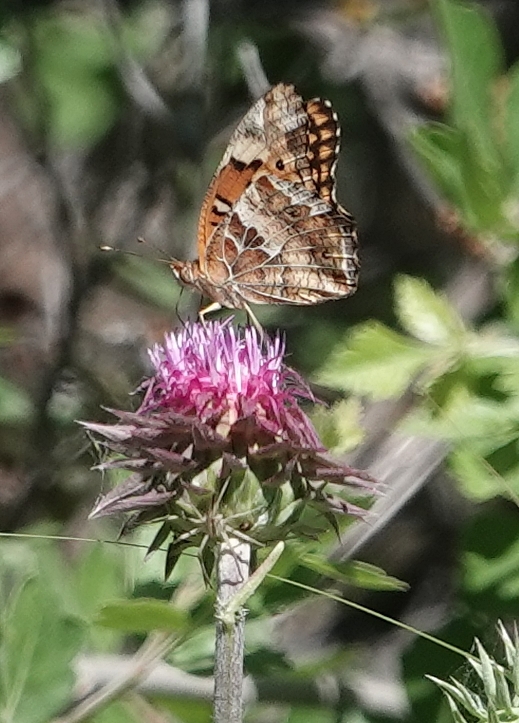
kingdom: Animalia
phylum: Arthropoda
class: Insecta
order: Lepidoptera
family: Nymphalidae
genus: Euptoieta
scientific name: Euptoieta claudia
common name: Variegated fritillary
